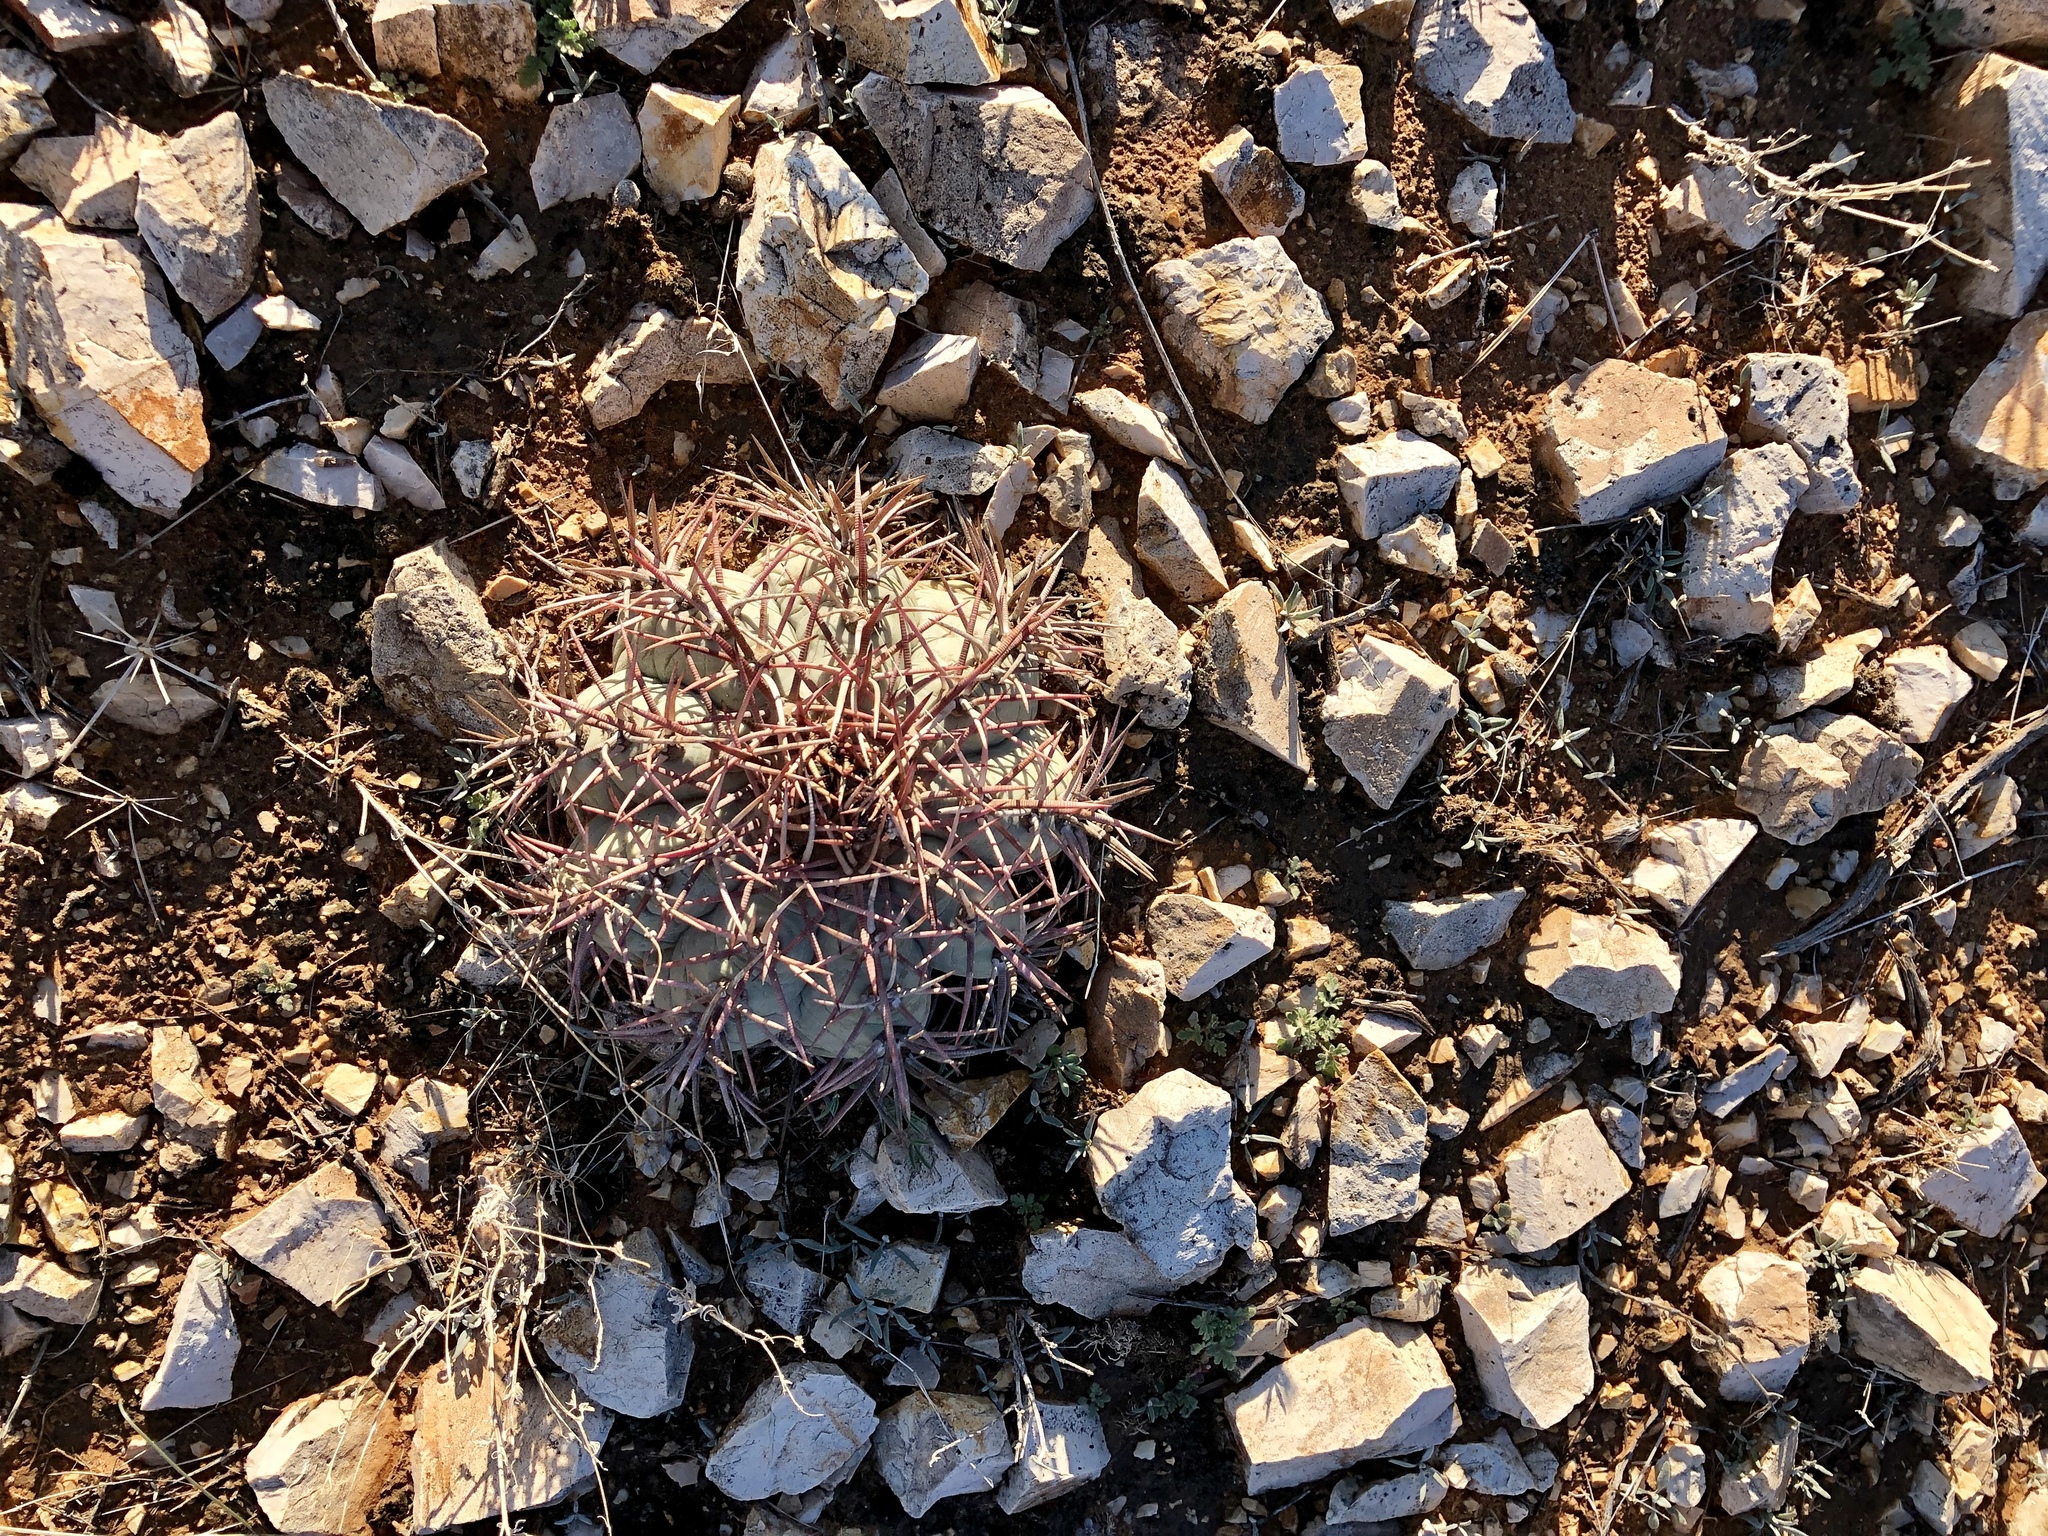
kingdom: Plantae
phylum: Tracheophyta
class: Magnoliopsida
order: Caryophyllales
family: Cactaceae
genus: Echinocactus
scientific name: Echinocactus horizonthalonius
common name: Devilshead
